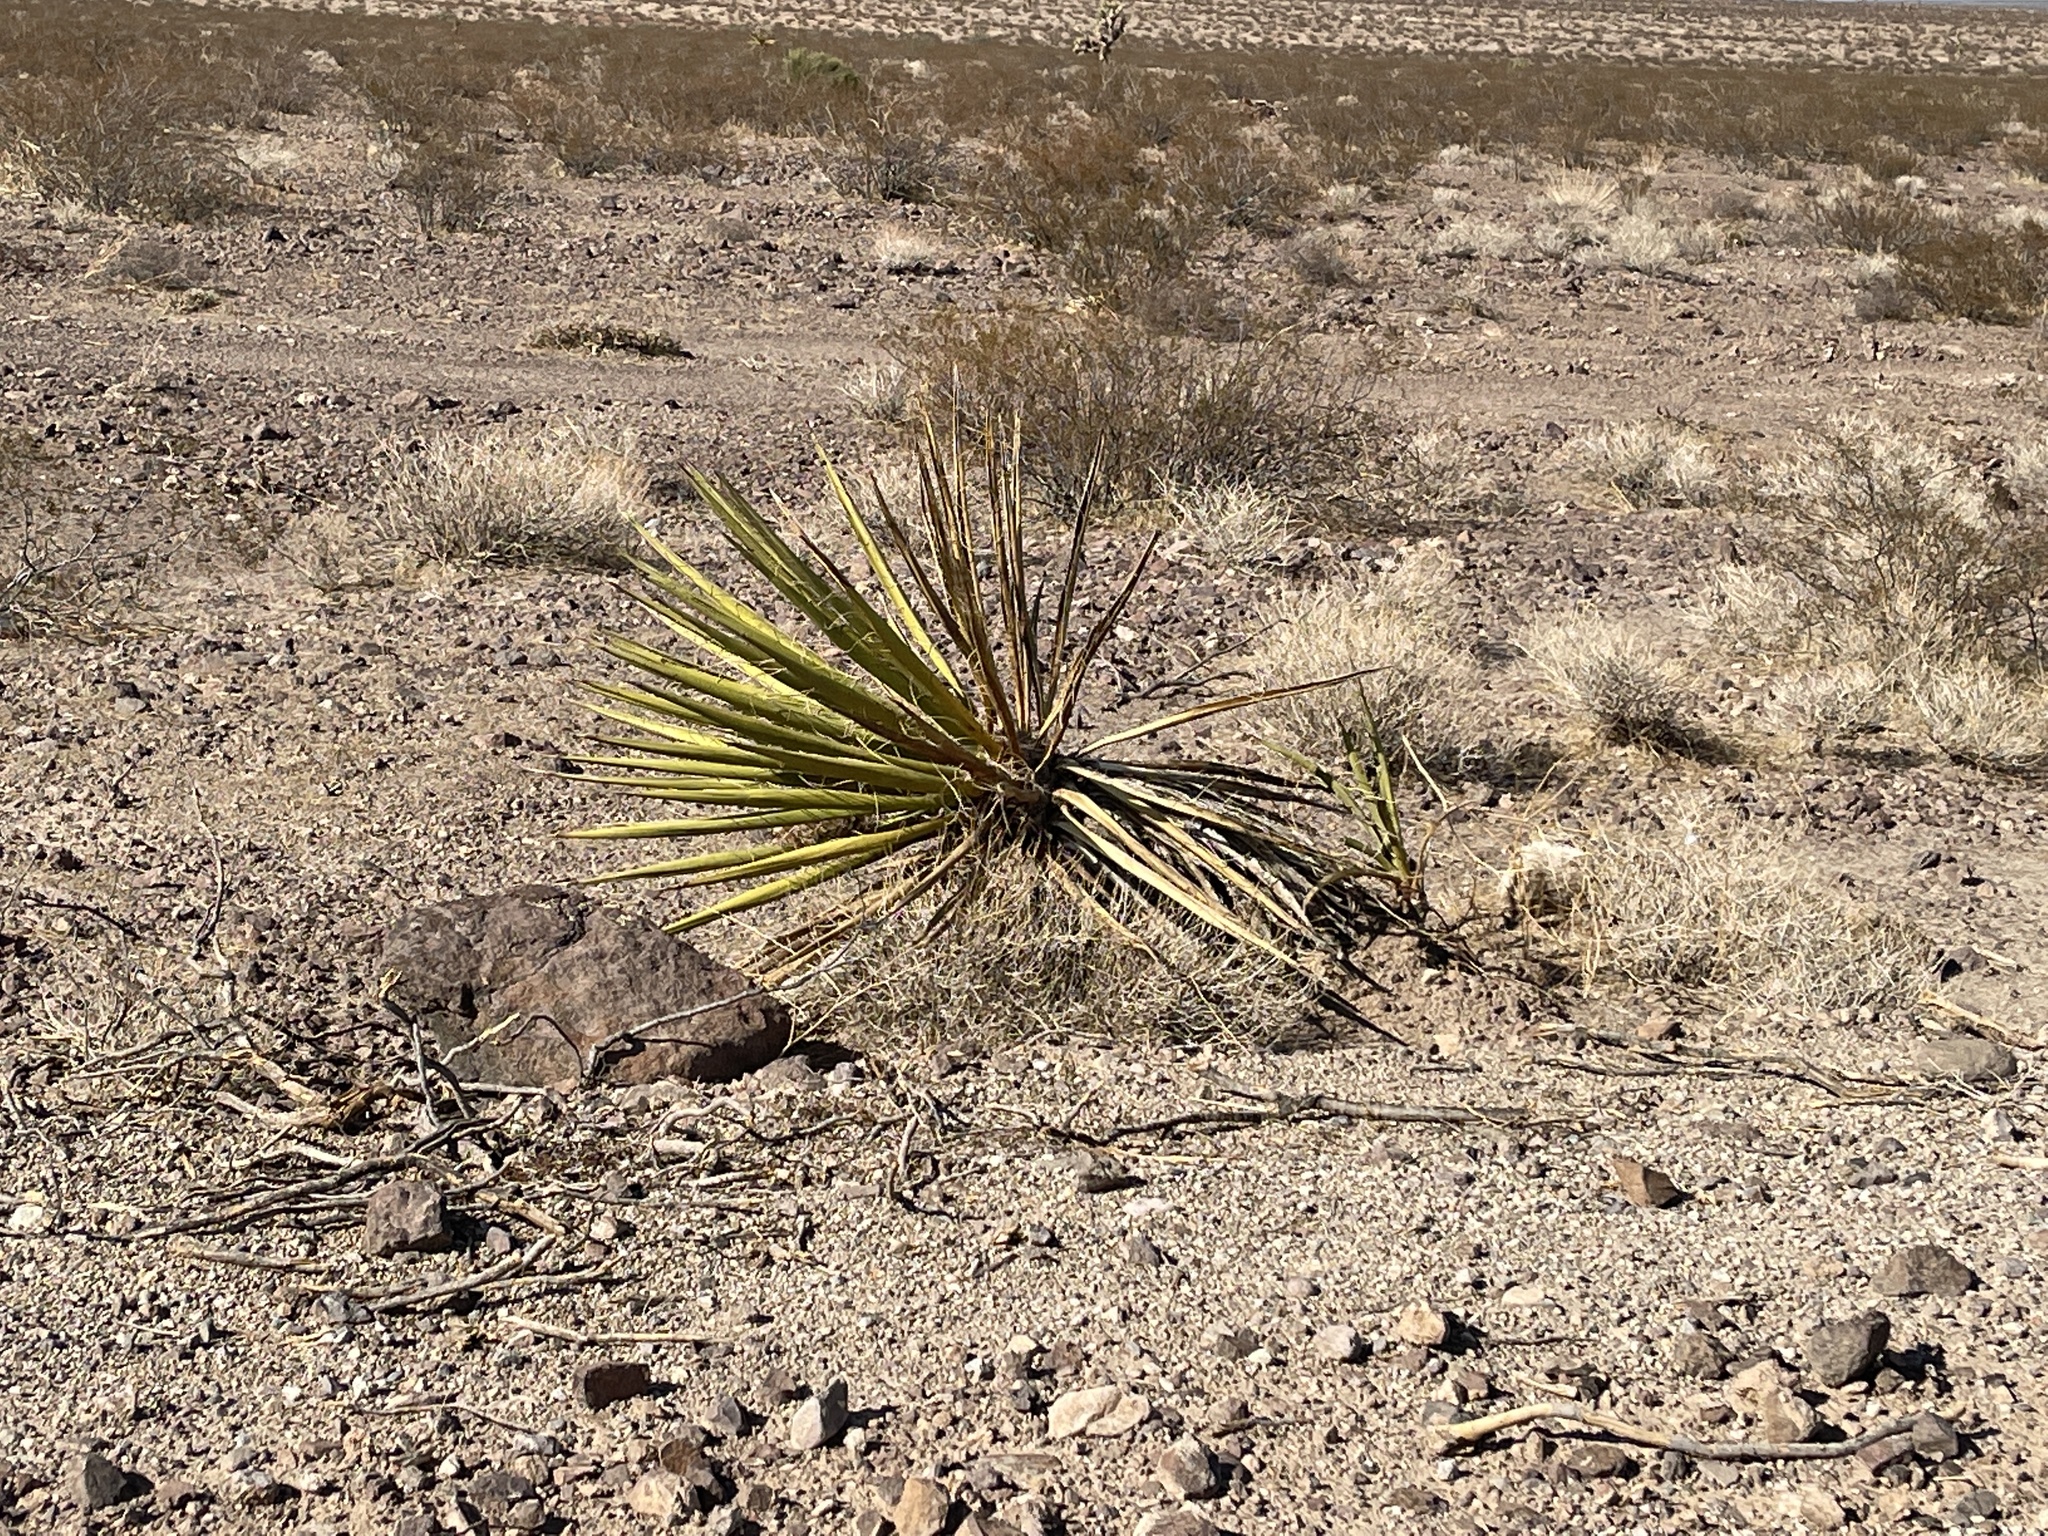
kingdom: Plantae
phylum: Tracheophyta
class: Liliopsida
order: Asparagales
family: Asparagaceae
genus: Yucca
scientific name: Yucca schidigera
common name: Mojave yucca
